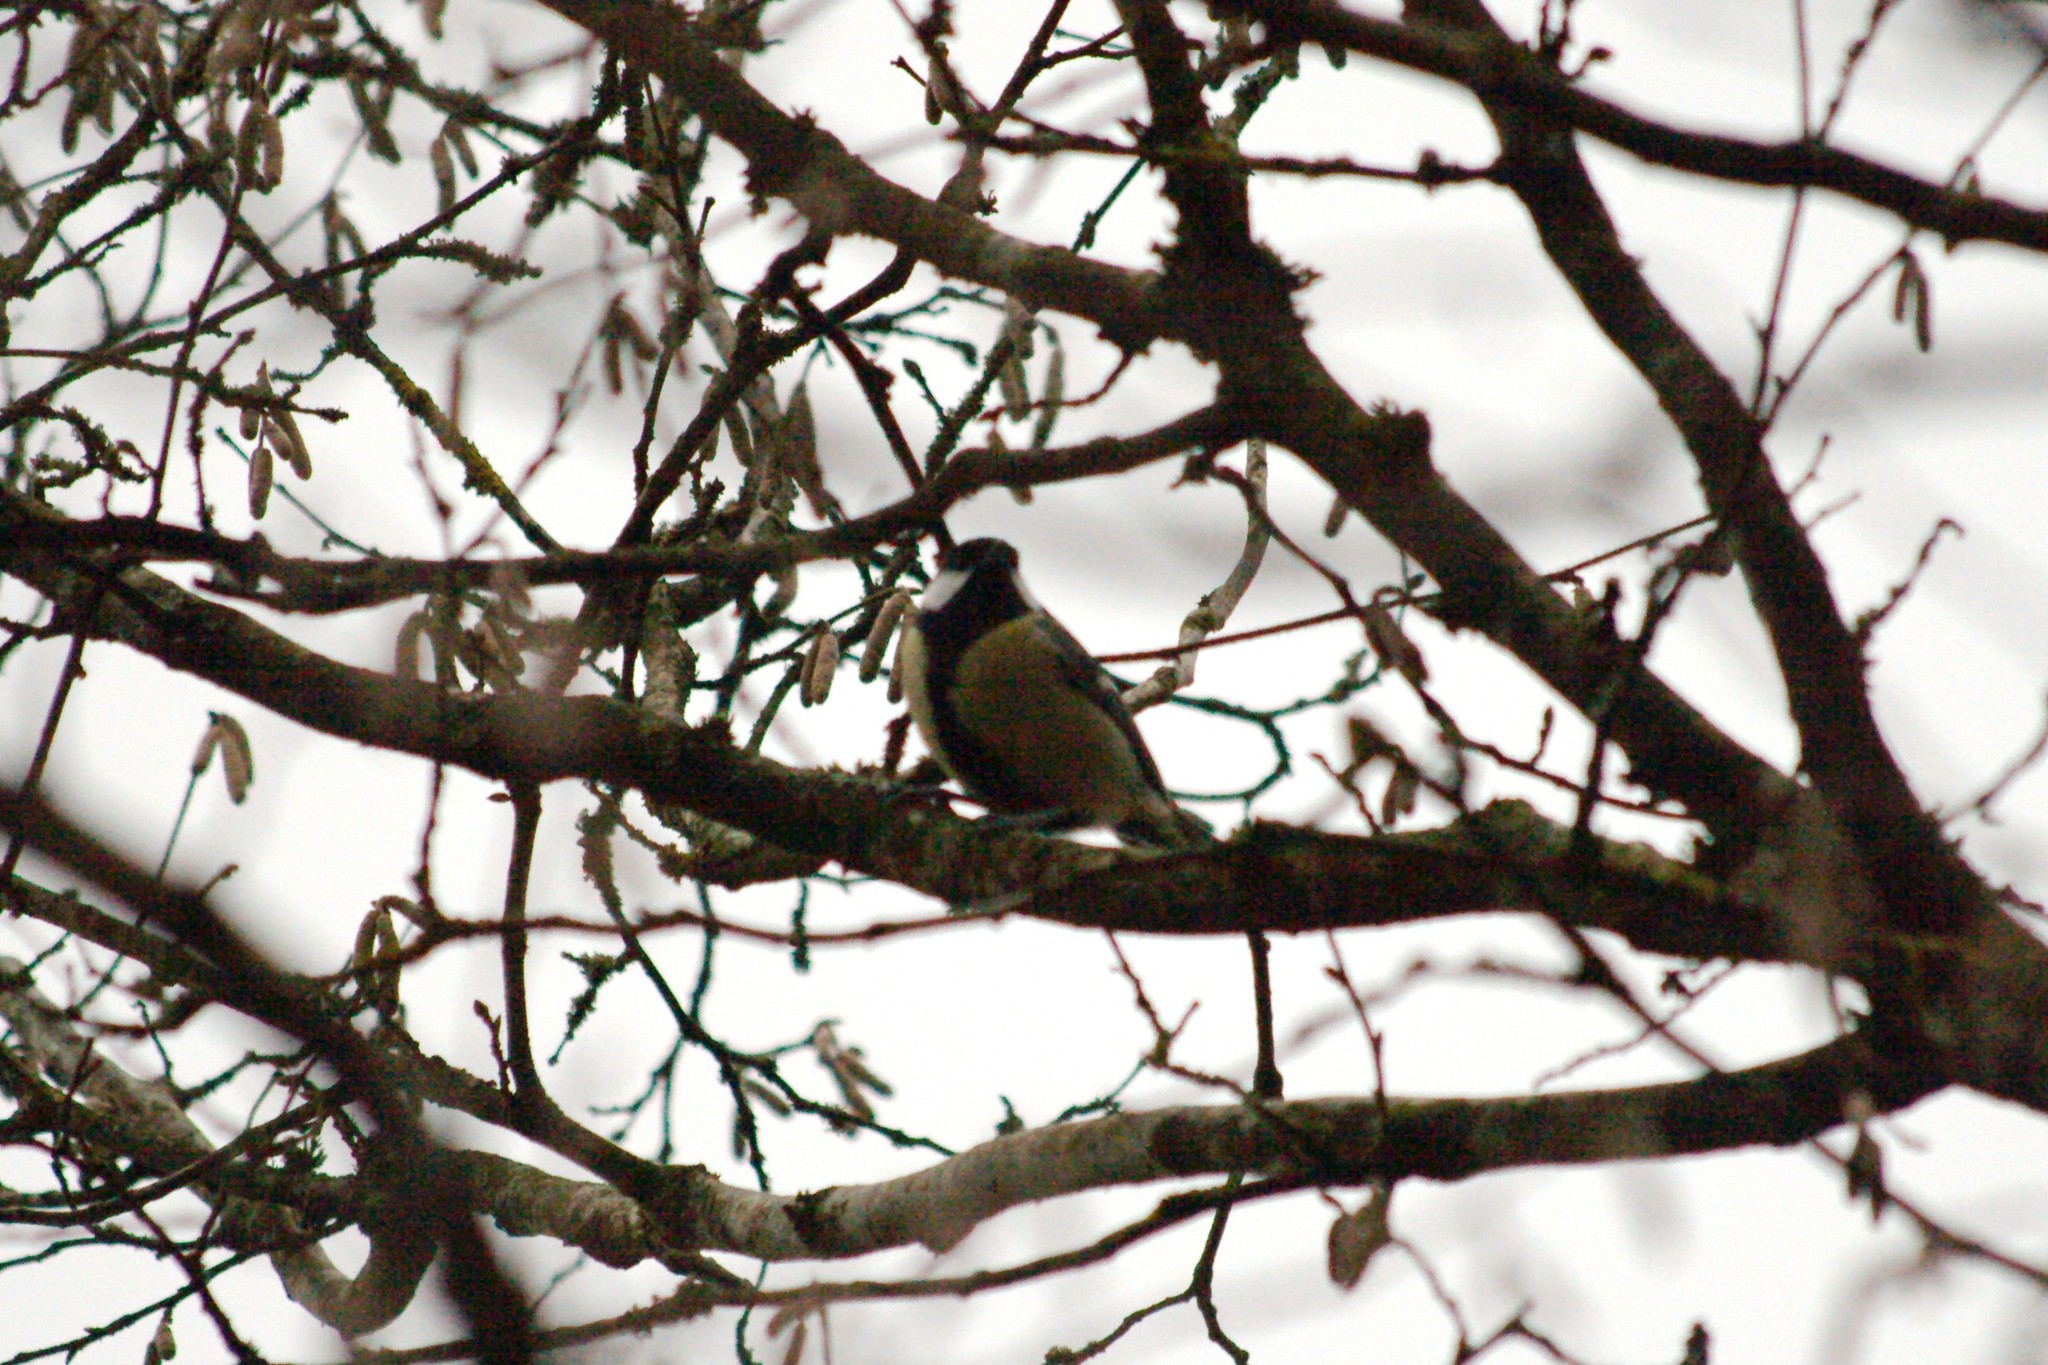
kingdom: Animalia
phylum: Chordata
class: Aves
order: Passeriformes
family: Paridae
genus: Parus
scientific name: Parus major
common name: Great tit
